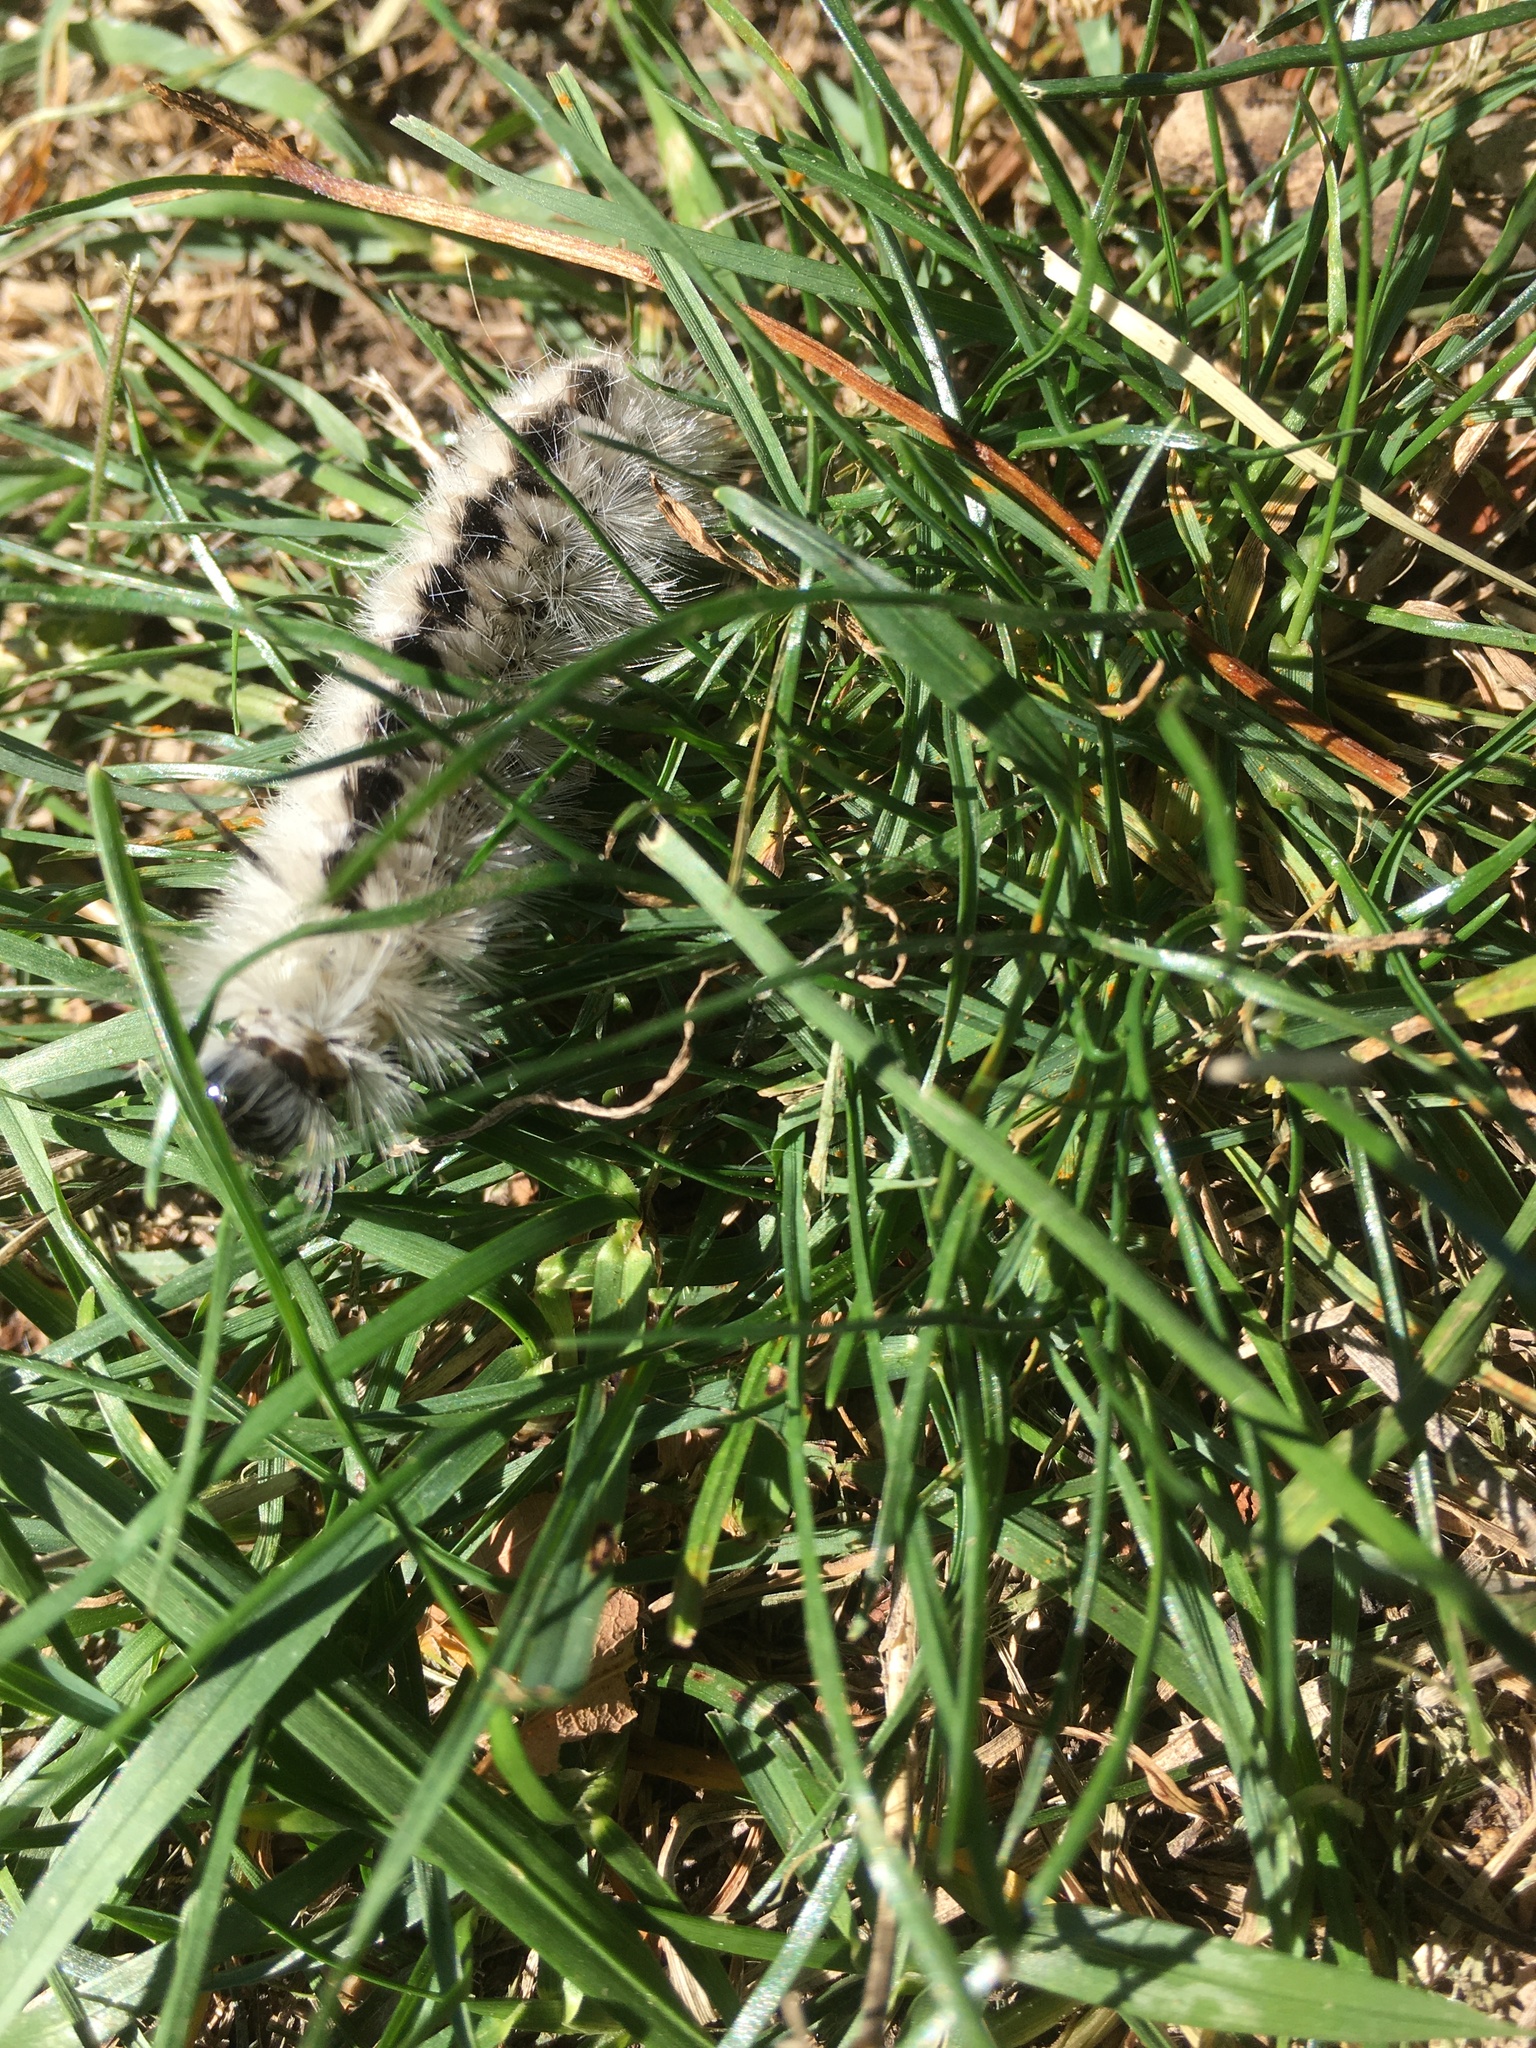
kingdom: Animalia
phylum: Arthropoda
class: Insecta
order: Lepidoptera
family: Erebidae
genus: Lophocampa
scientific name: Lophocampa caryae
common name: Hickory tussock moth
